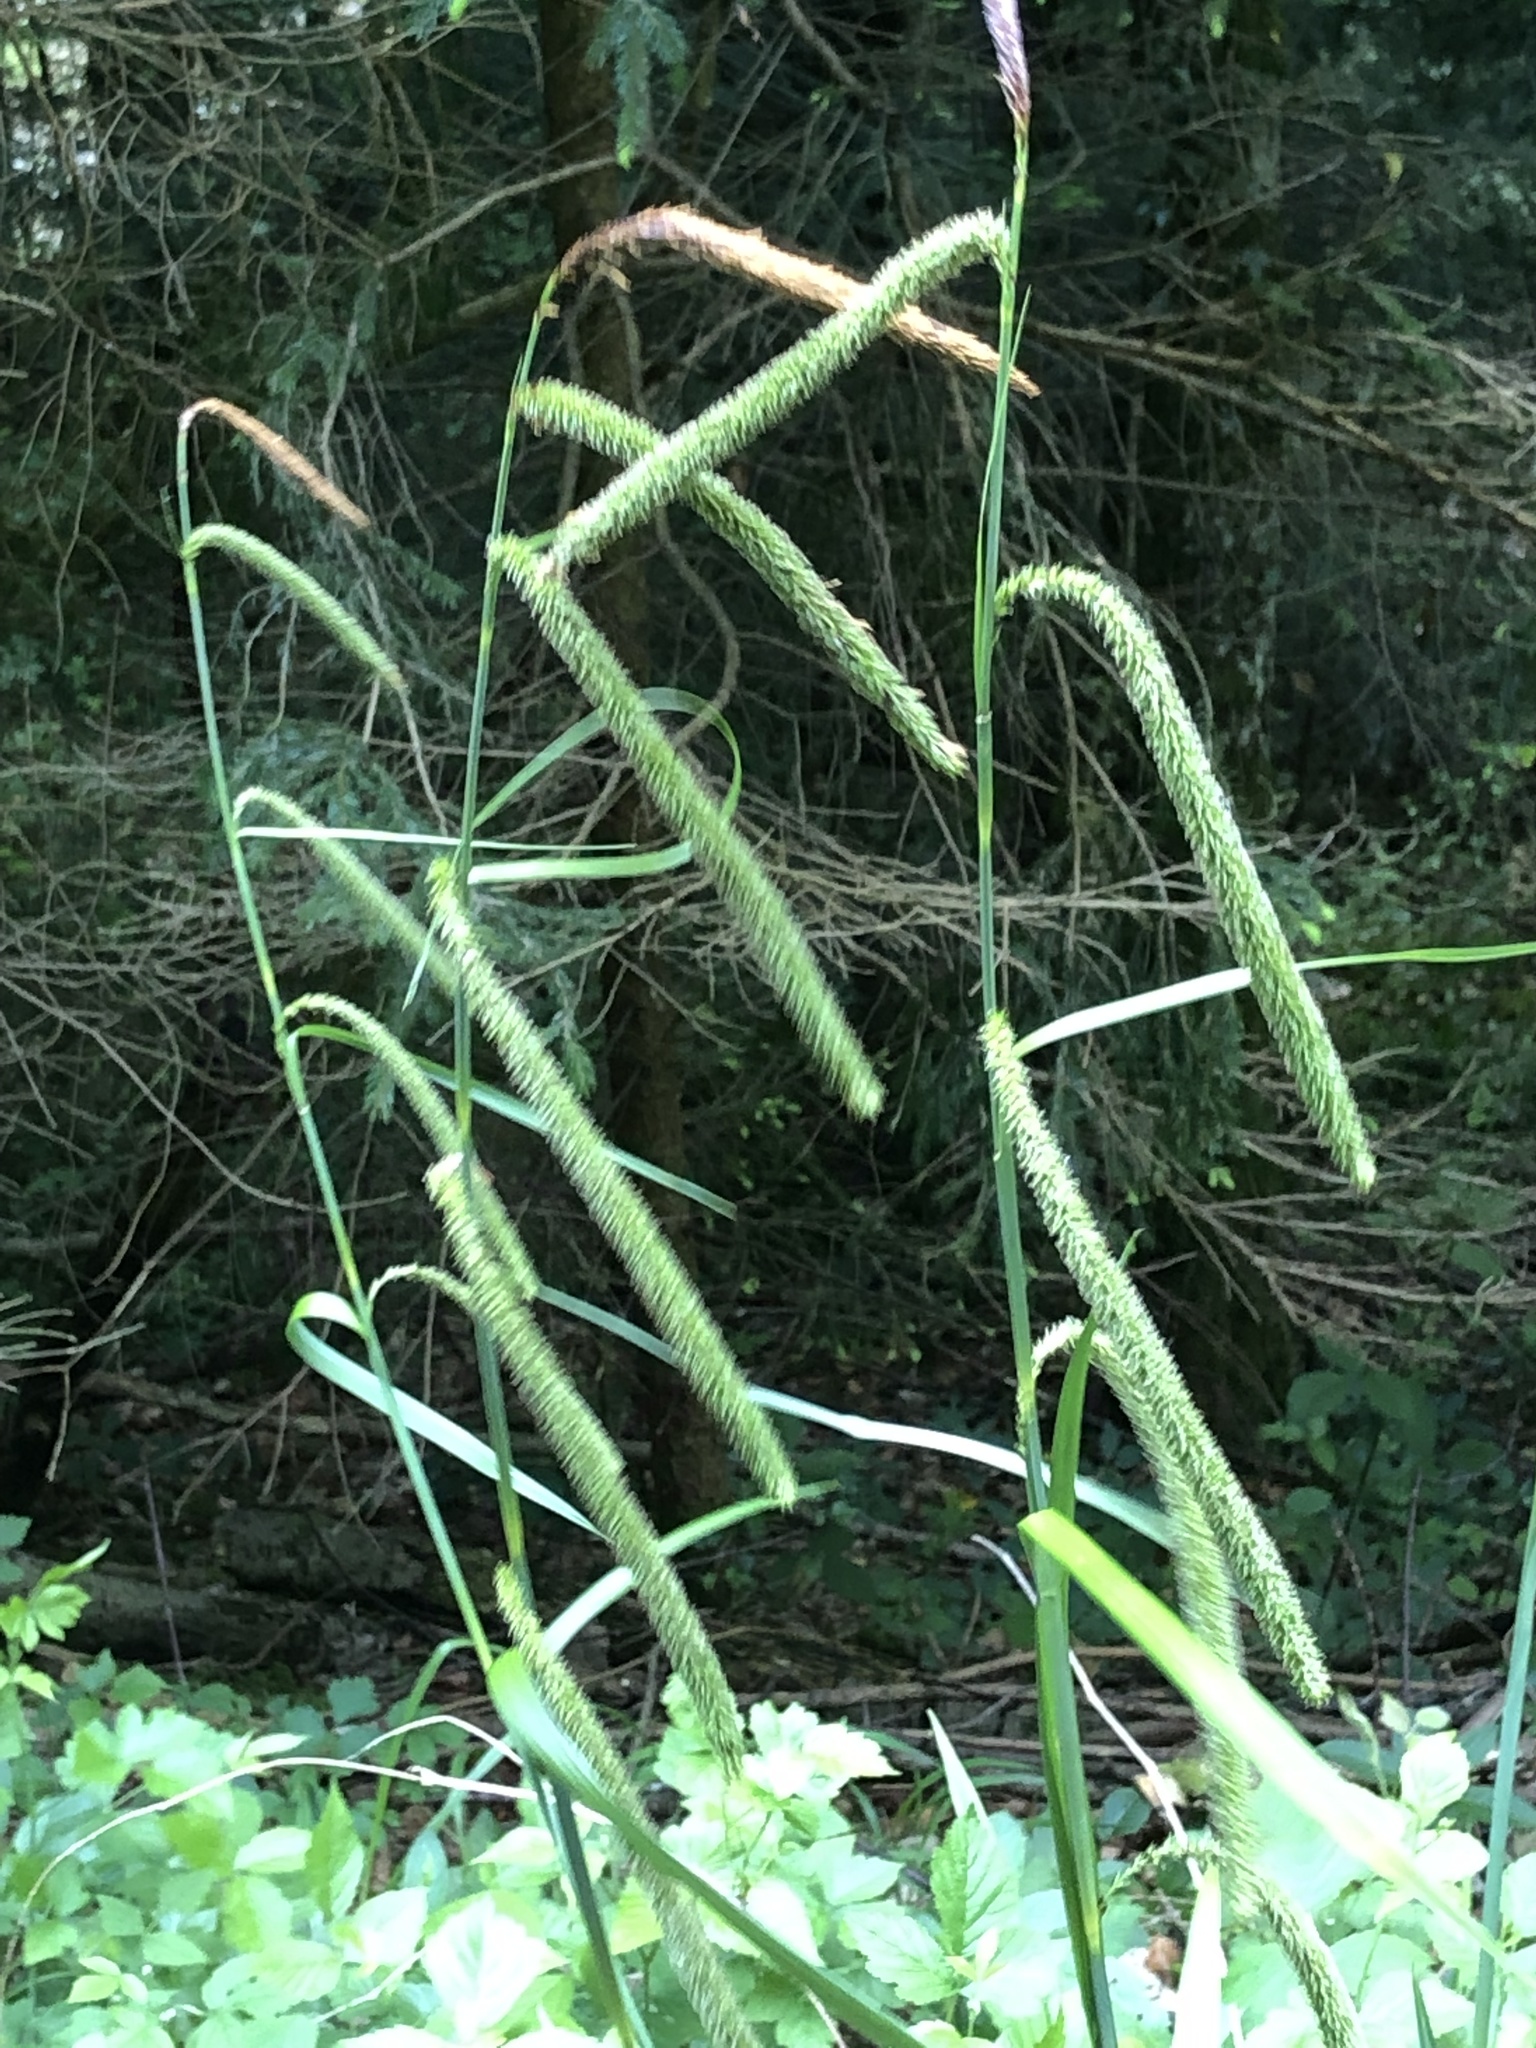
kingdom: Plantae
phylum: Tracheophyta
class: Liliopsida
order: Poales
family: Cyperaceae
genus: Carex
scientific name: Carex pendula
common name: Pendulous sedge
